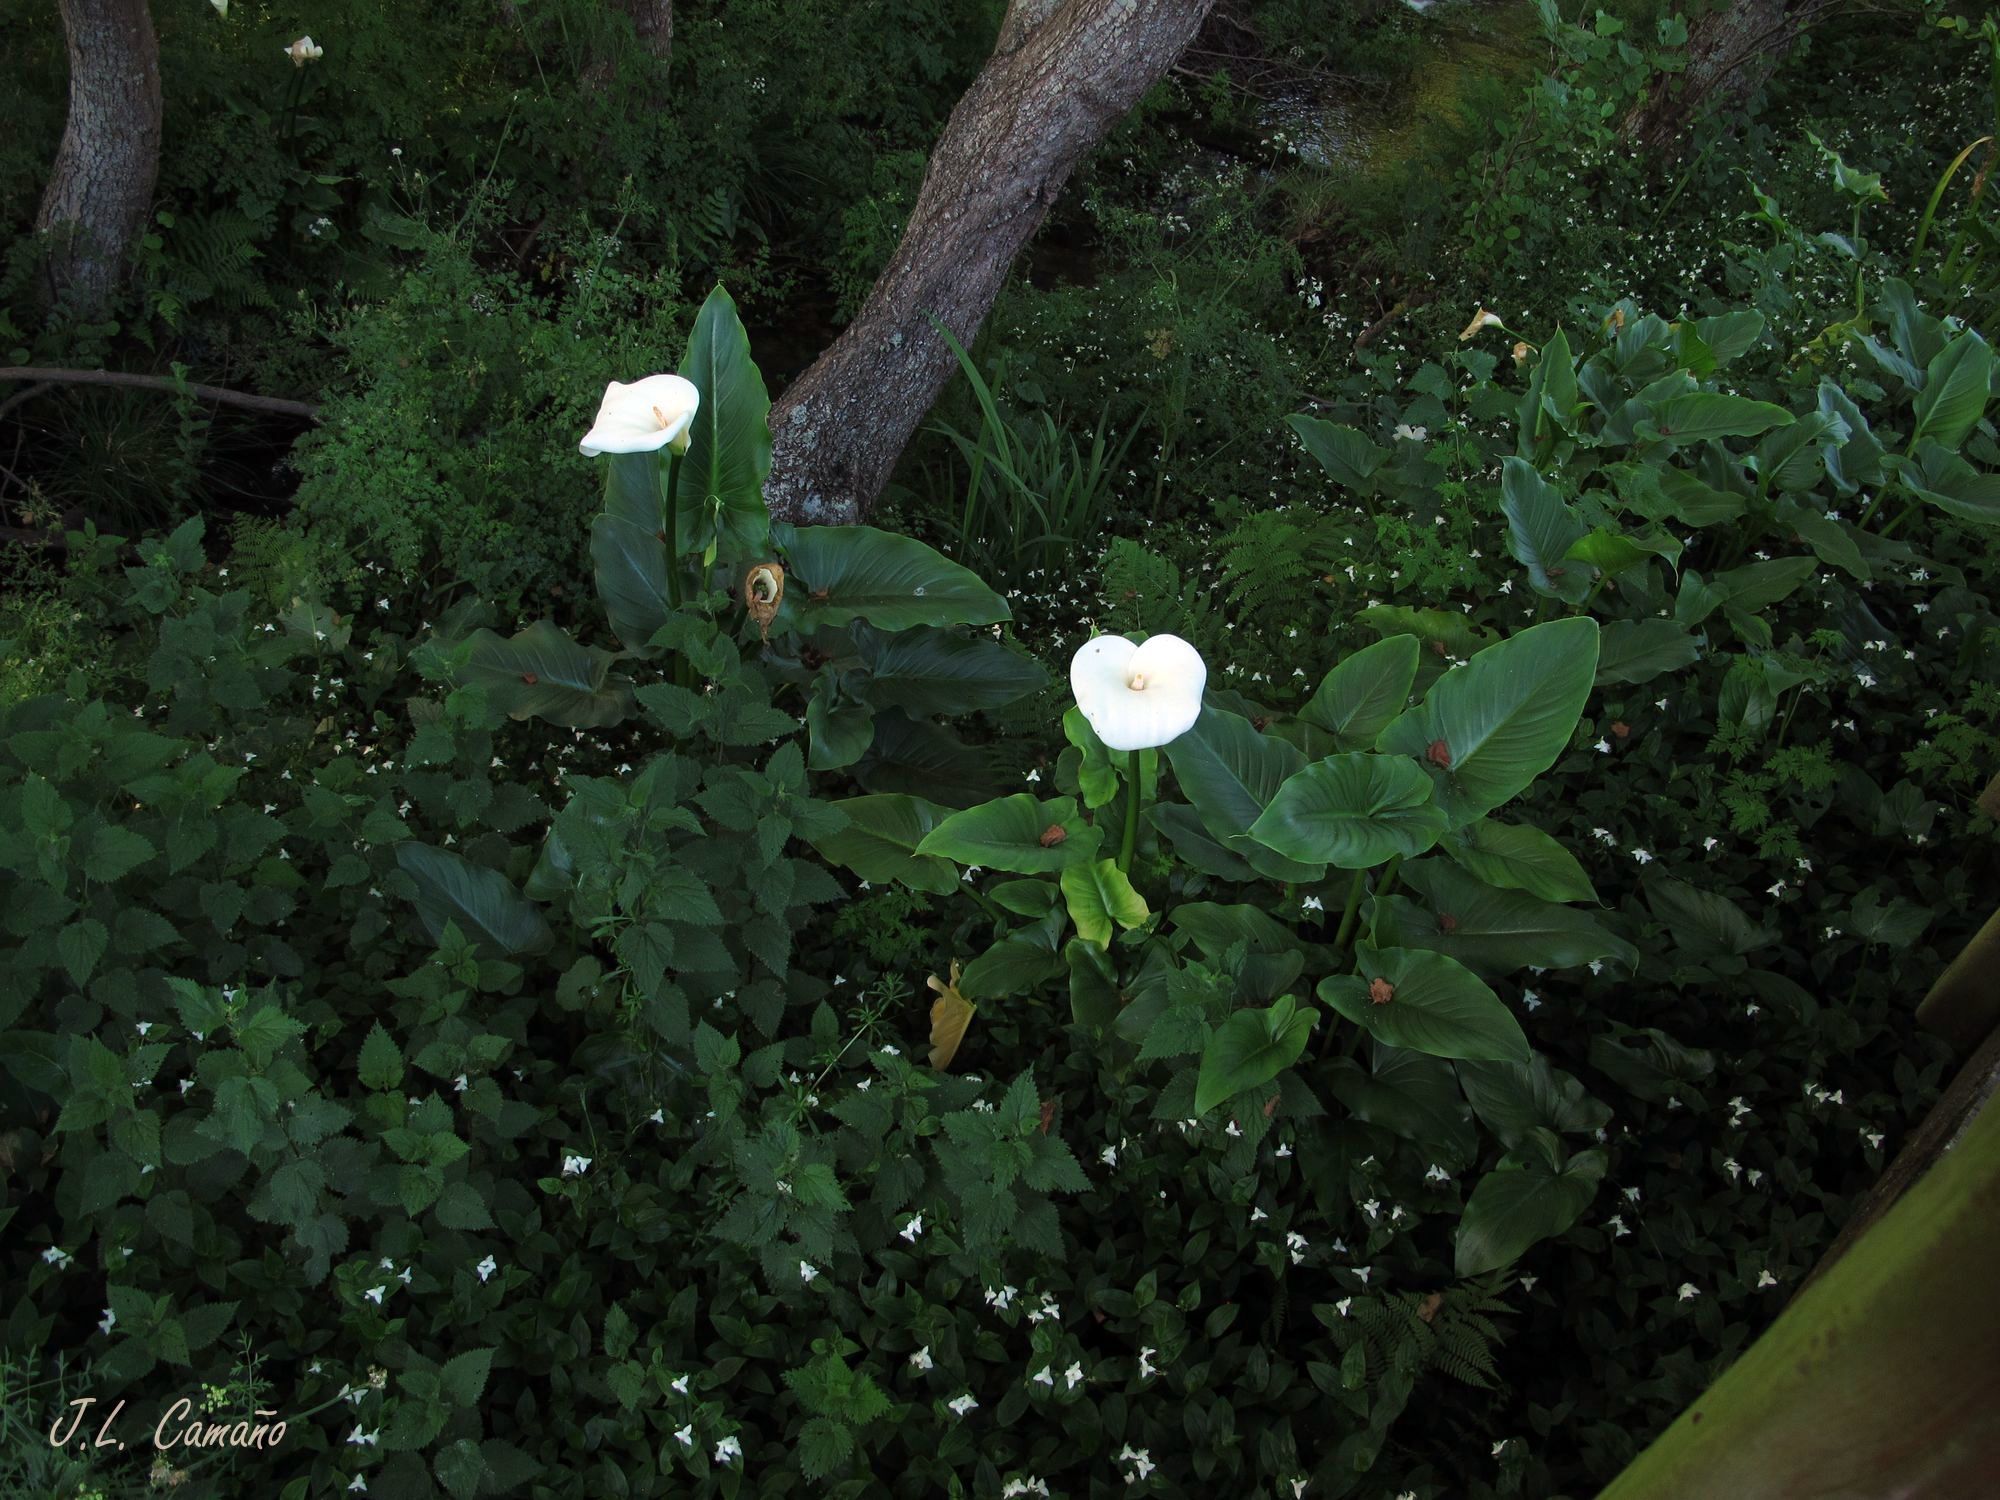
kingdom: Plantae
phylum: Tracheophyta
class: Liliopsida
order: Alismatales
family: Araceae
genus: Zantedeschia
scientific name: Zantedeschia aethiopica
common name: Altar-lily
